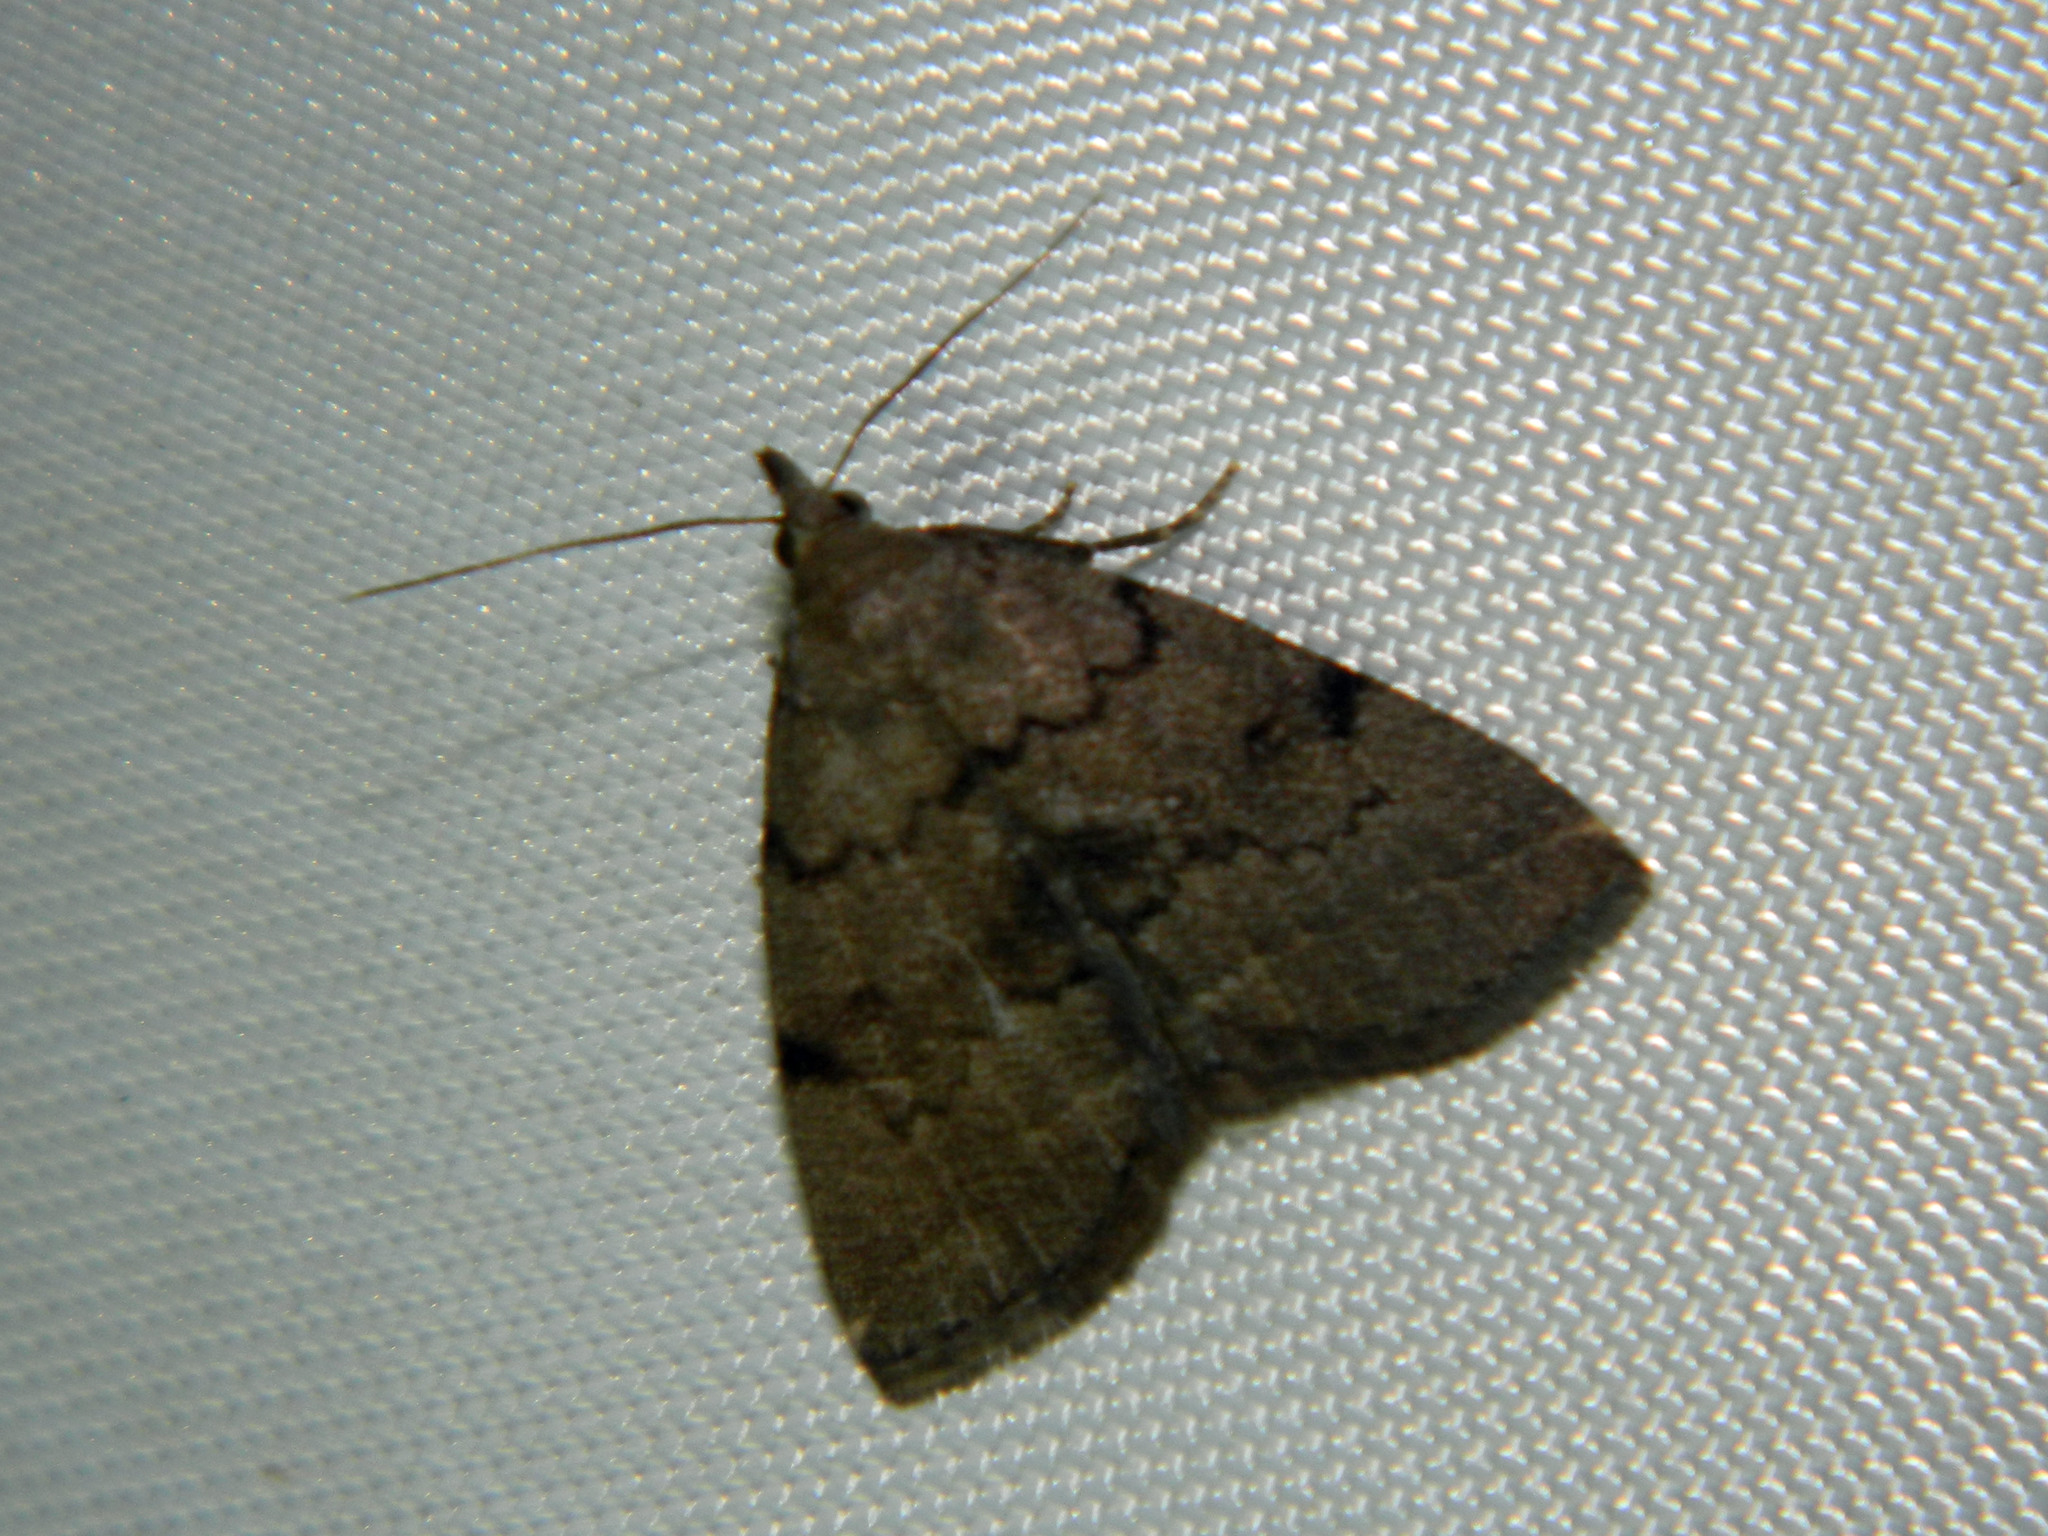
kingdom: Animalia
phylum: Arthropoda
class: Insecta
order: Lepidoptera
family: Erebidae
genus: Zanclognatha
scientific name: Zanclognatha dentata
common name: Toothed fan-foot
